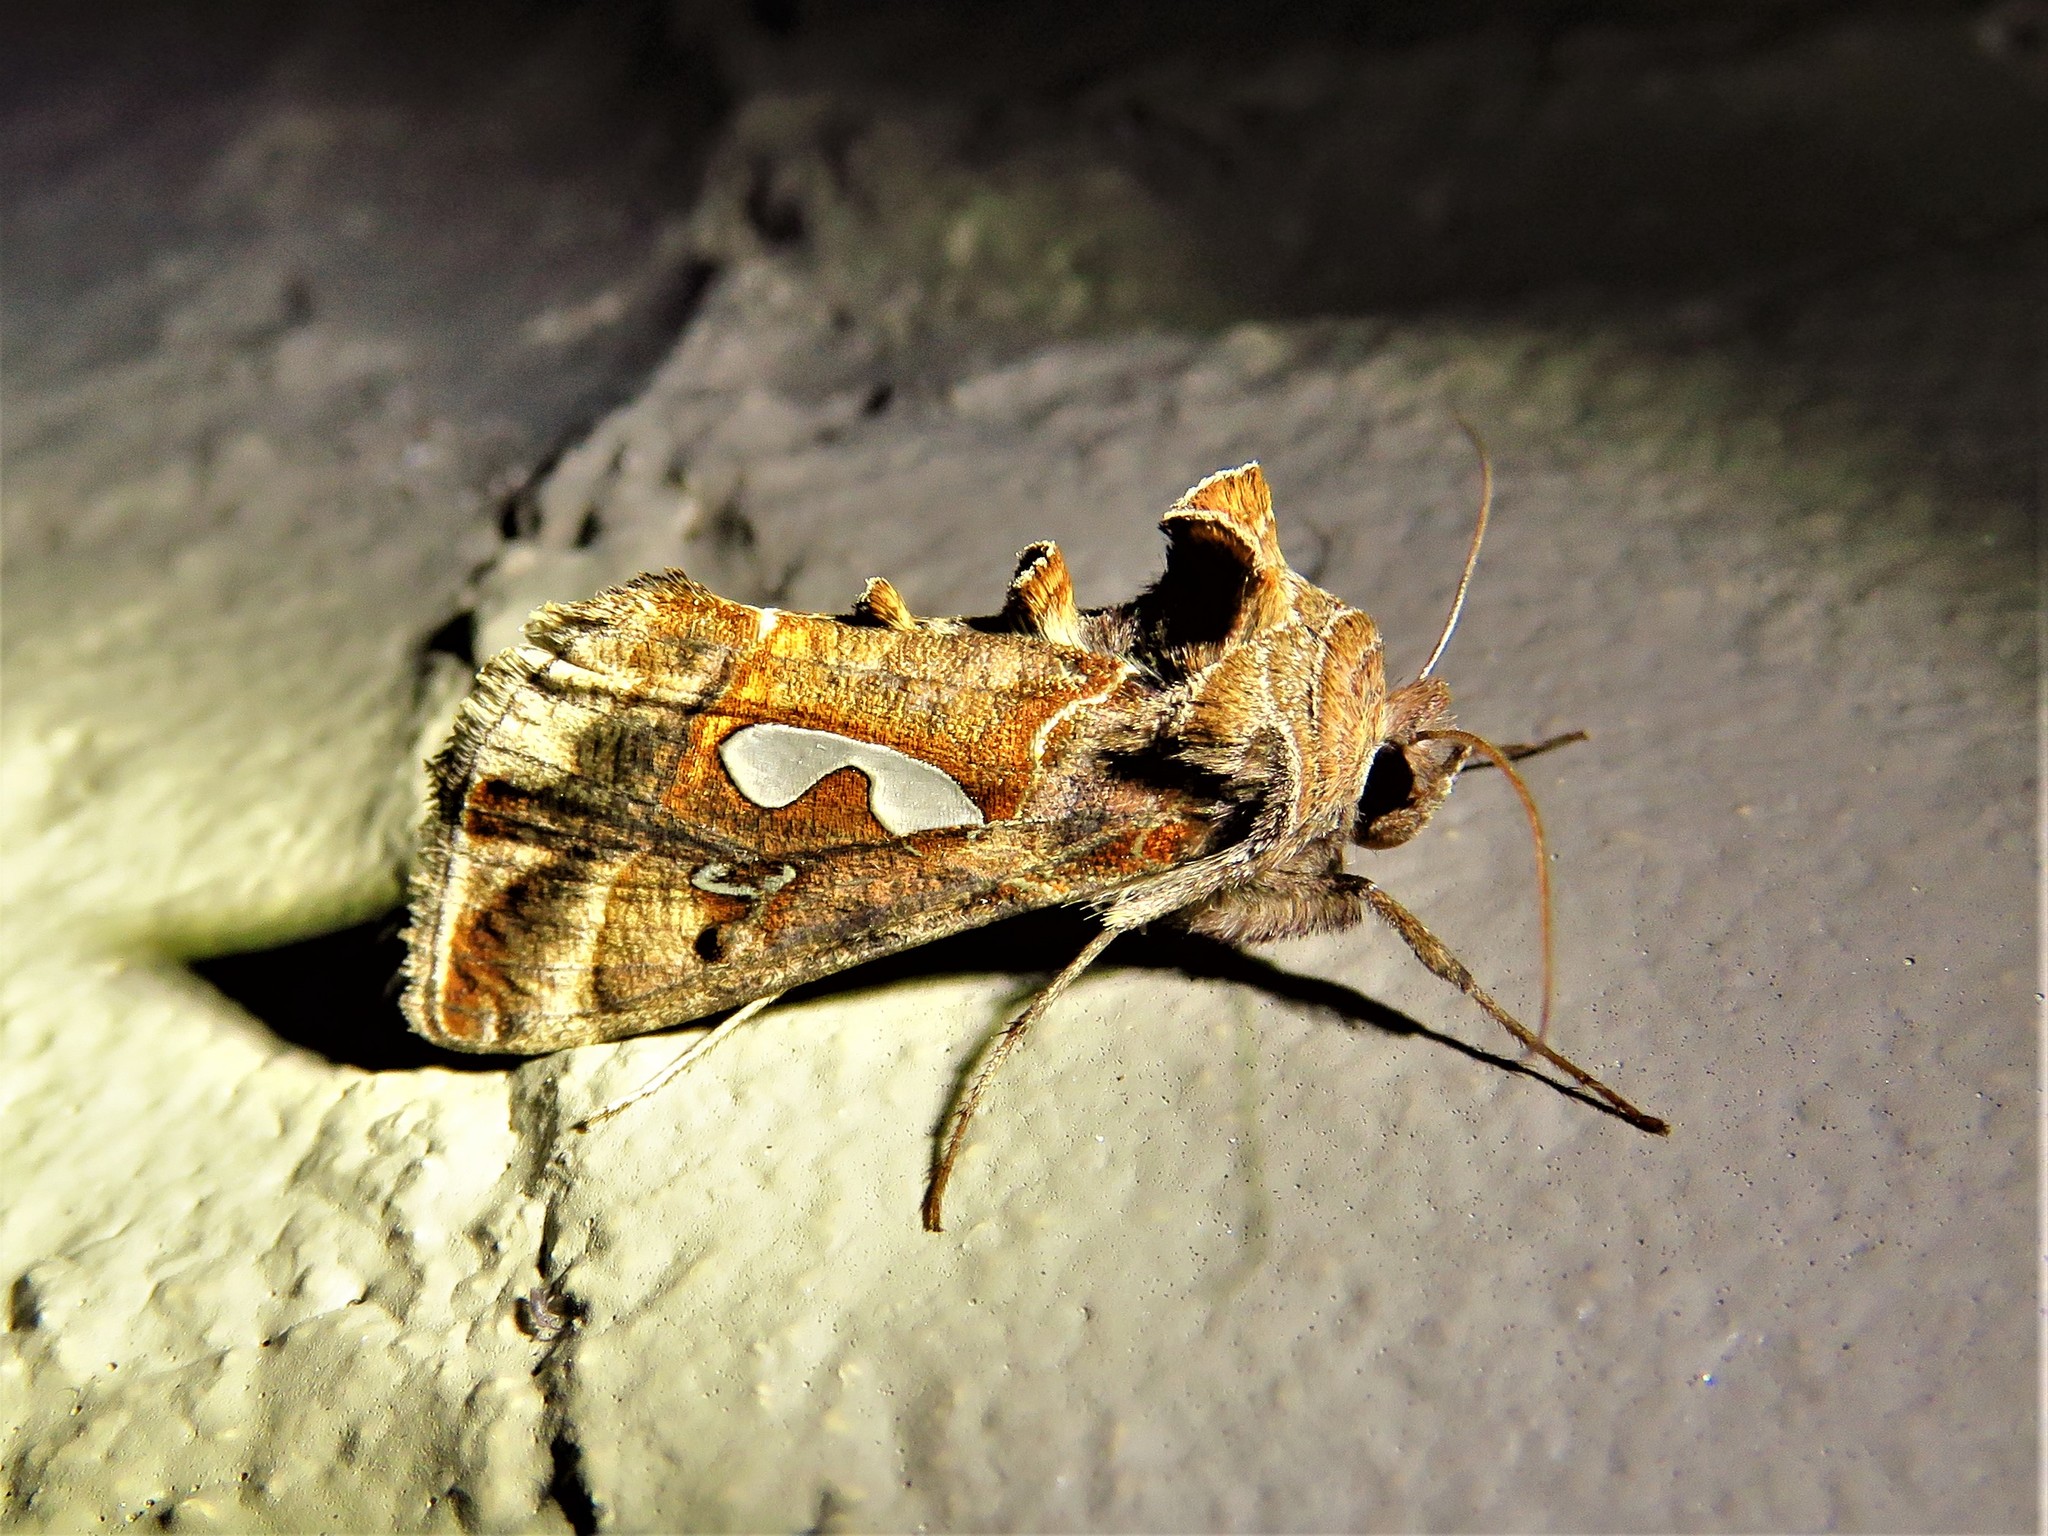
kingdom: Animalia
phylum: Arthropoda
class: Insecta
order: Lepidoptera
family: Noctuidae
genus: Megalographa
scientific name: Megalographa biloba
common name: Cutworm
